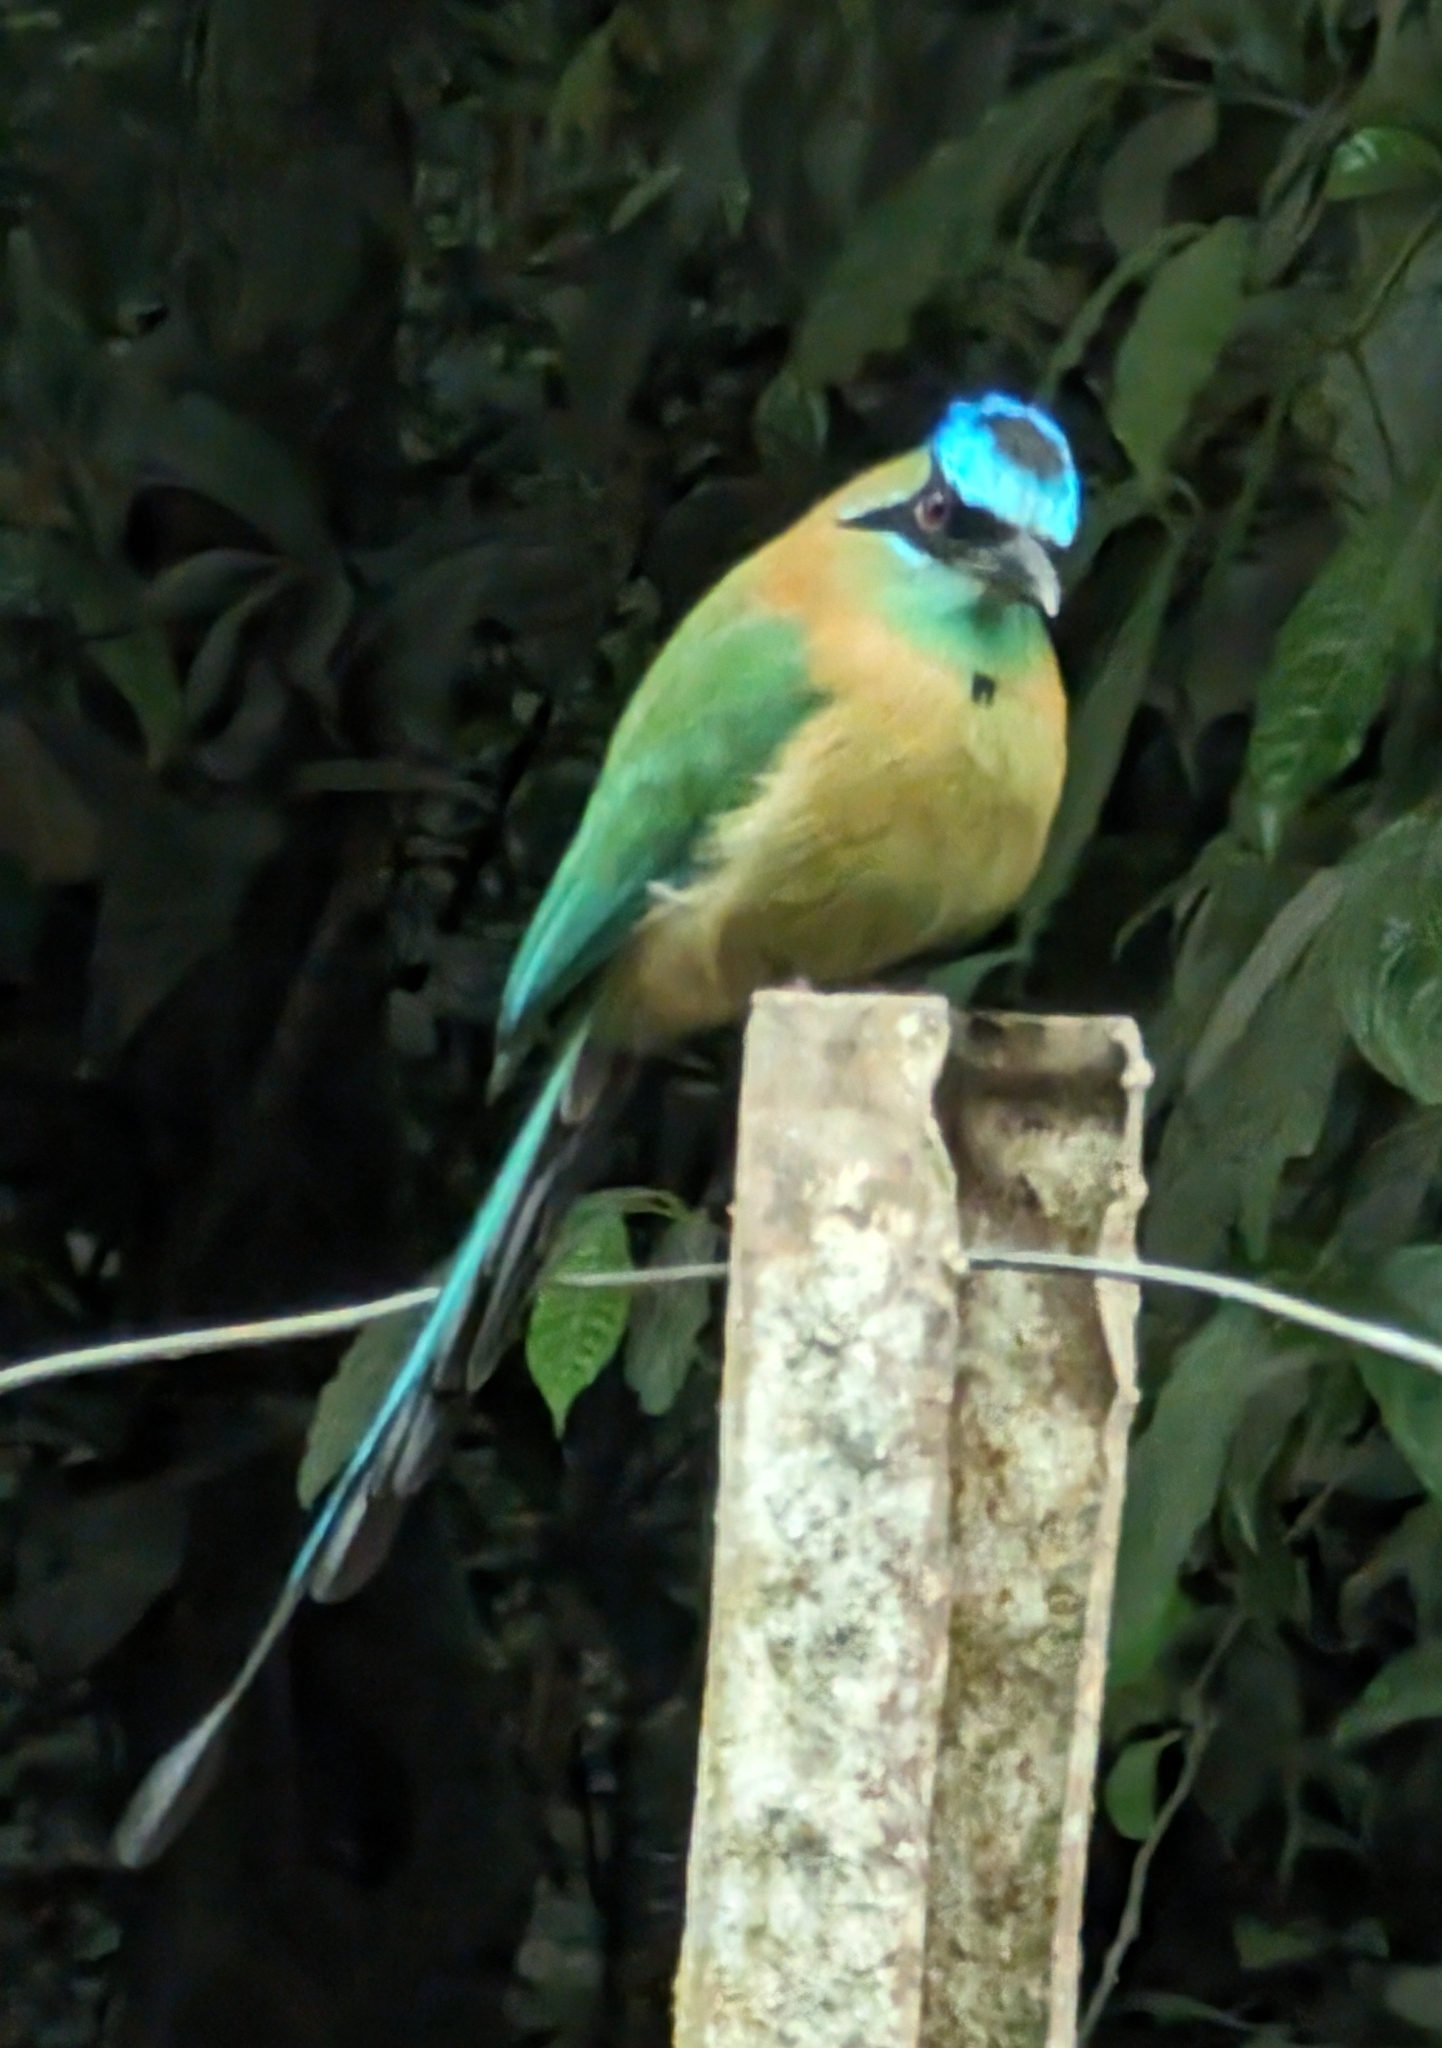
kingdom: Animalia
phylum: Chordata
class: Aves
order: Coraciiformes
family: Momotidae
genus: Momotus
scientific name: Momotus lessonii
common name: Lesson's motmot
